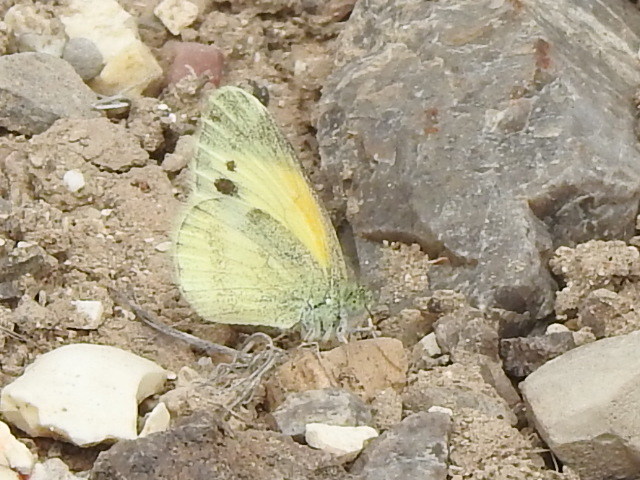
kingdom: Animalia
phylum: Arthropoda
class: Insecta
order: Lepidoptera
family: Pieridae
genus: Nathalis
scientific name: Nathalis iole
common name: Dainty sulphur
